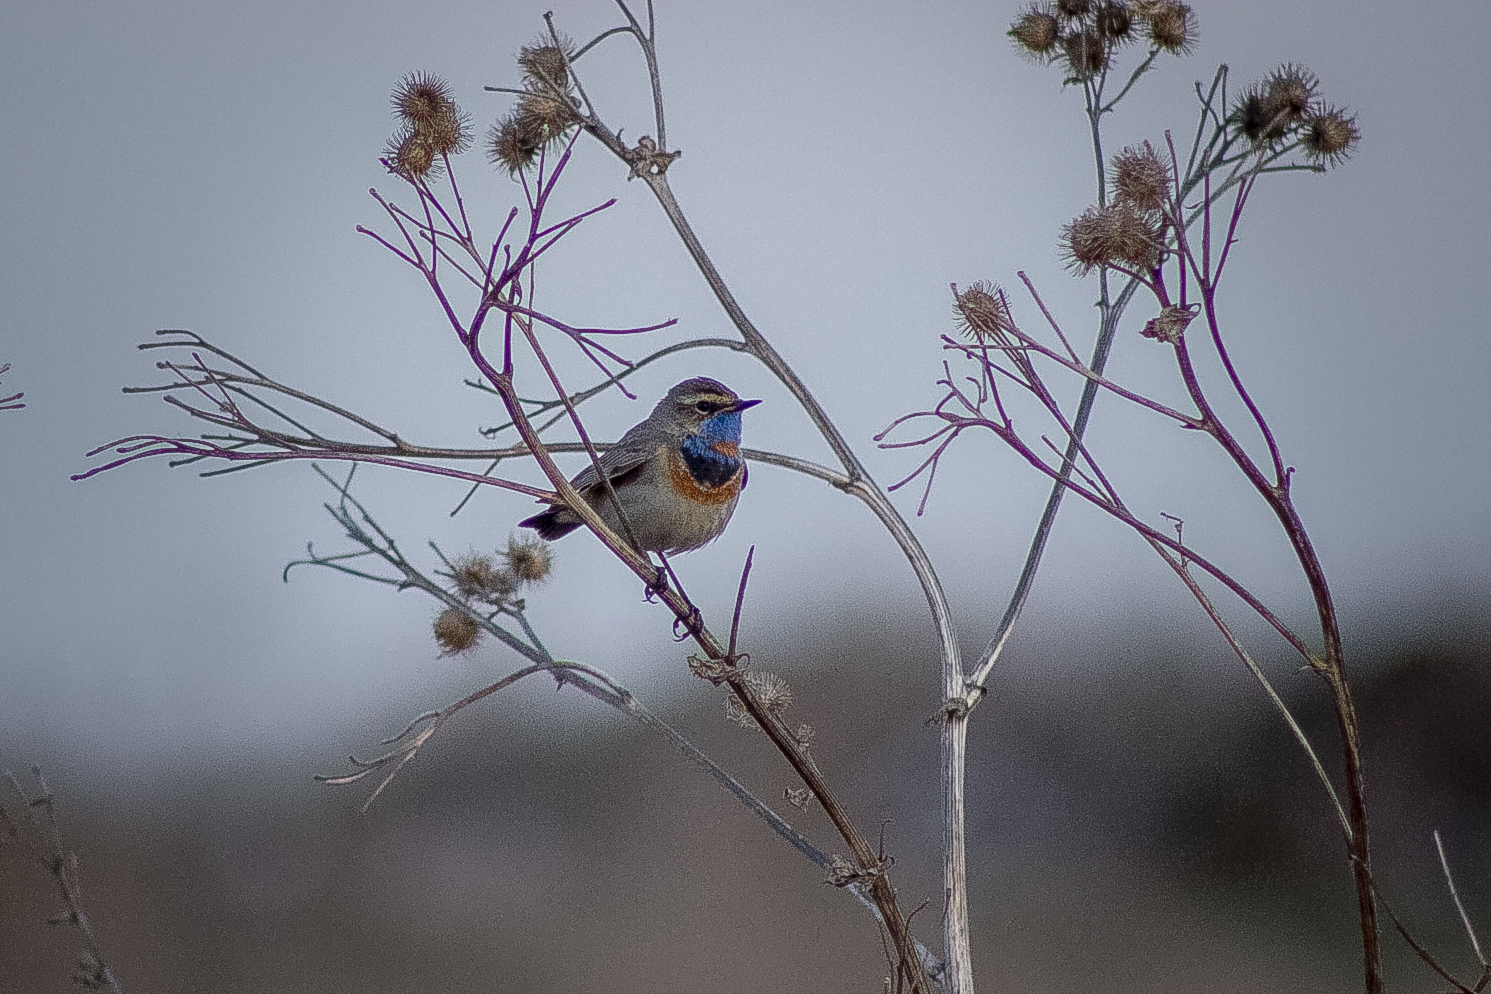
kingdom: Animalia
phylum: Chordata
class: Aves
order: Passeriformes
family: Muscicapidae
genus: Luscinia
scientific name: Luscinia svecica
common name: Bluethroat
